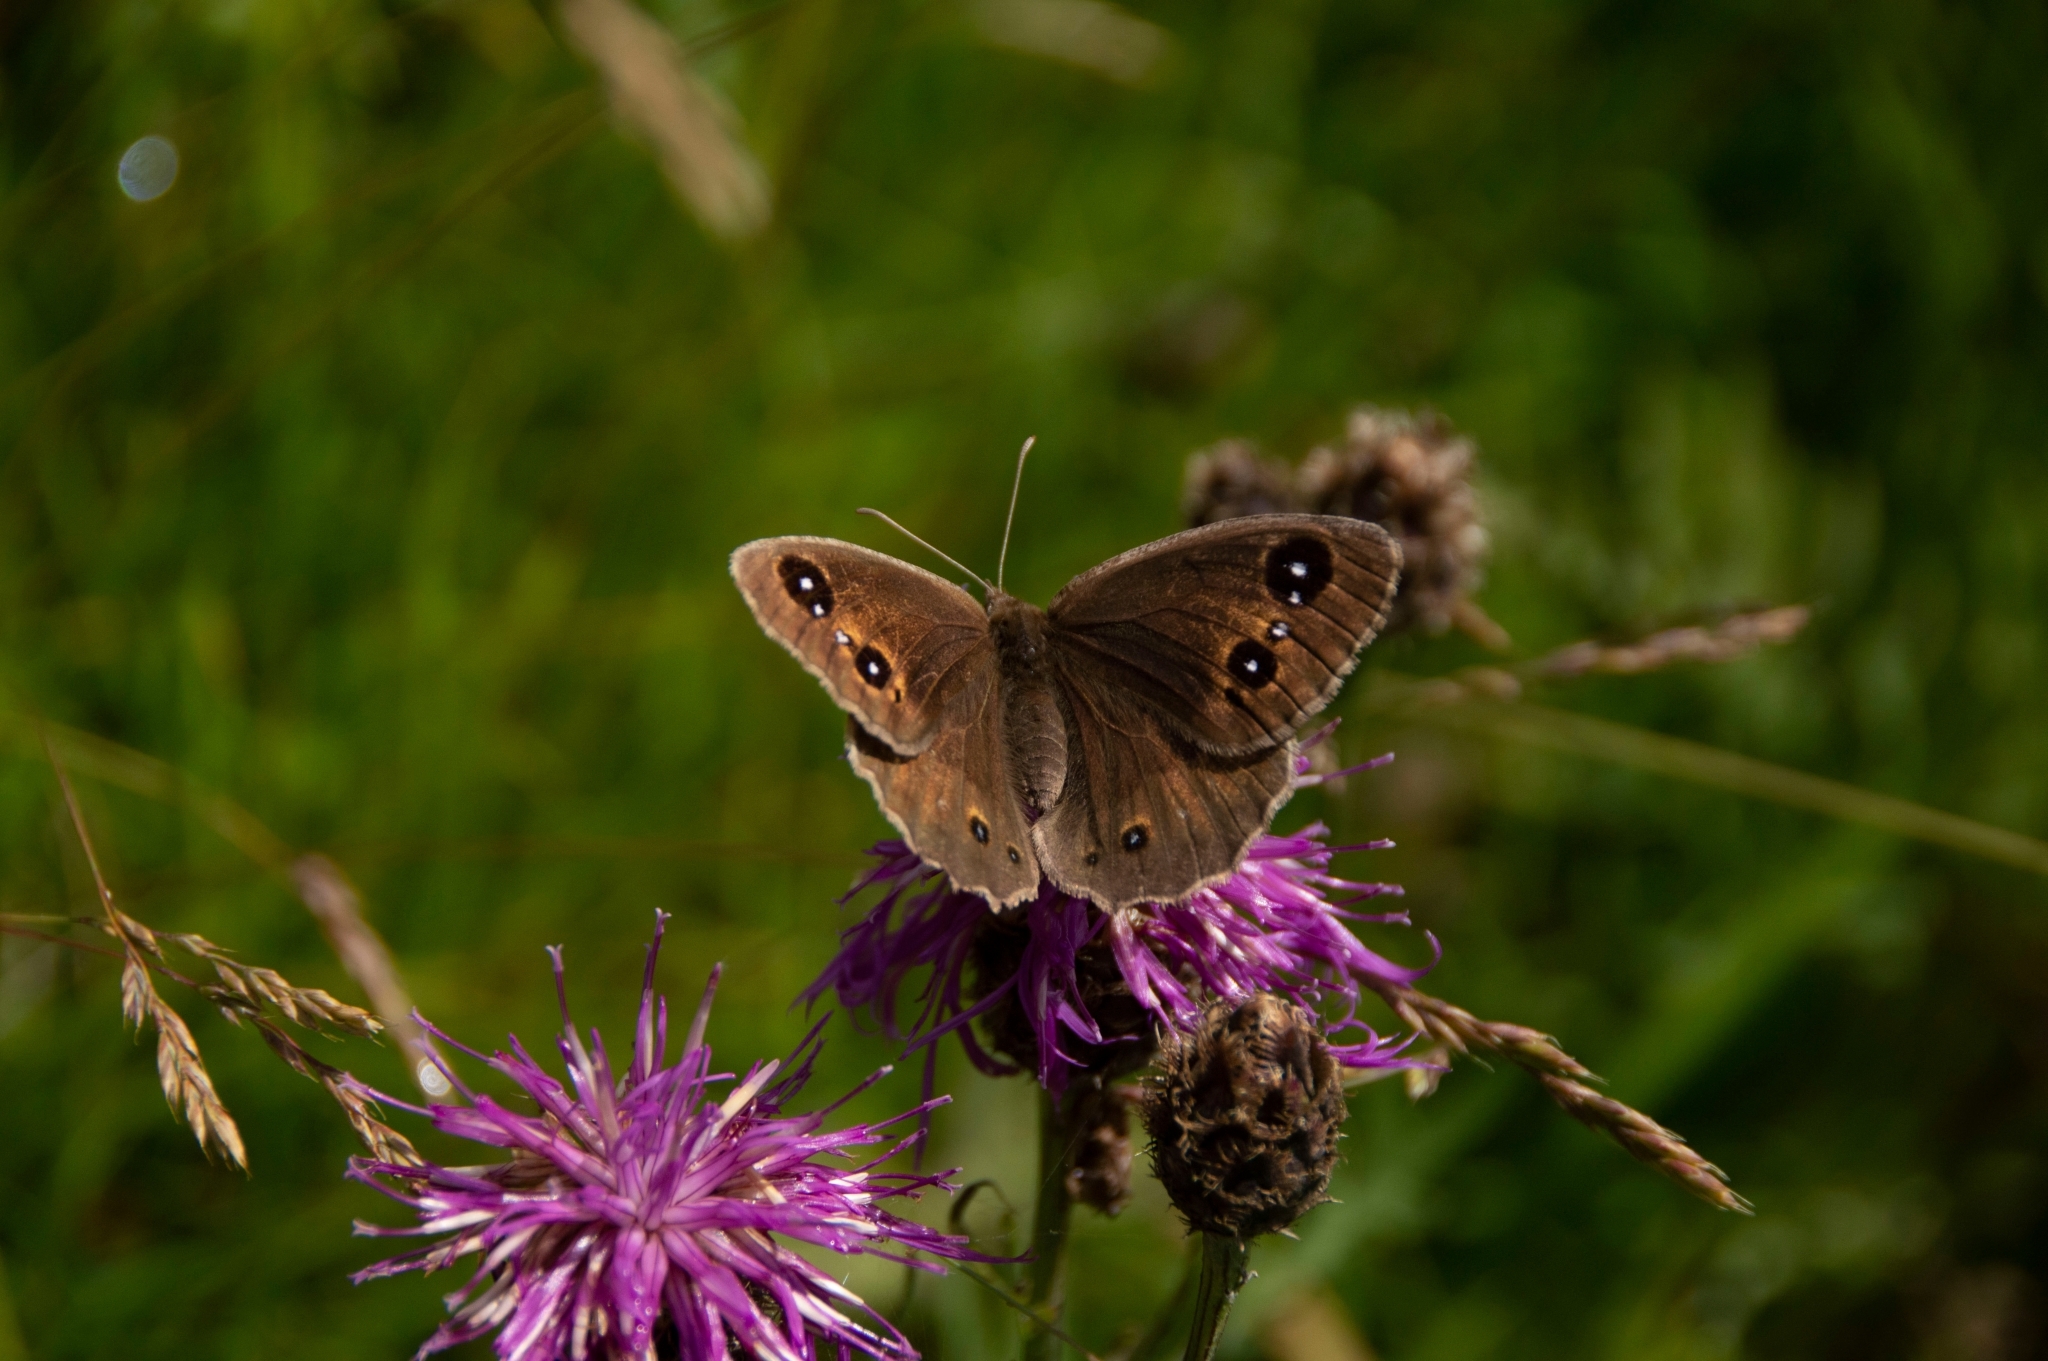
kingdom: Animalia
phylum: Arthropoda
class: Insecta
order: Lepidoptera
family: Nymphalidae
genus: Satyrus
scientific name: Satyrus ferula
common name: Great sooty satyr
